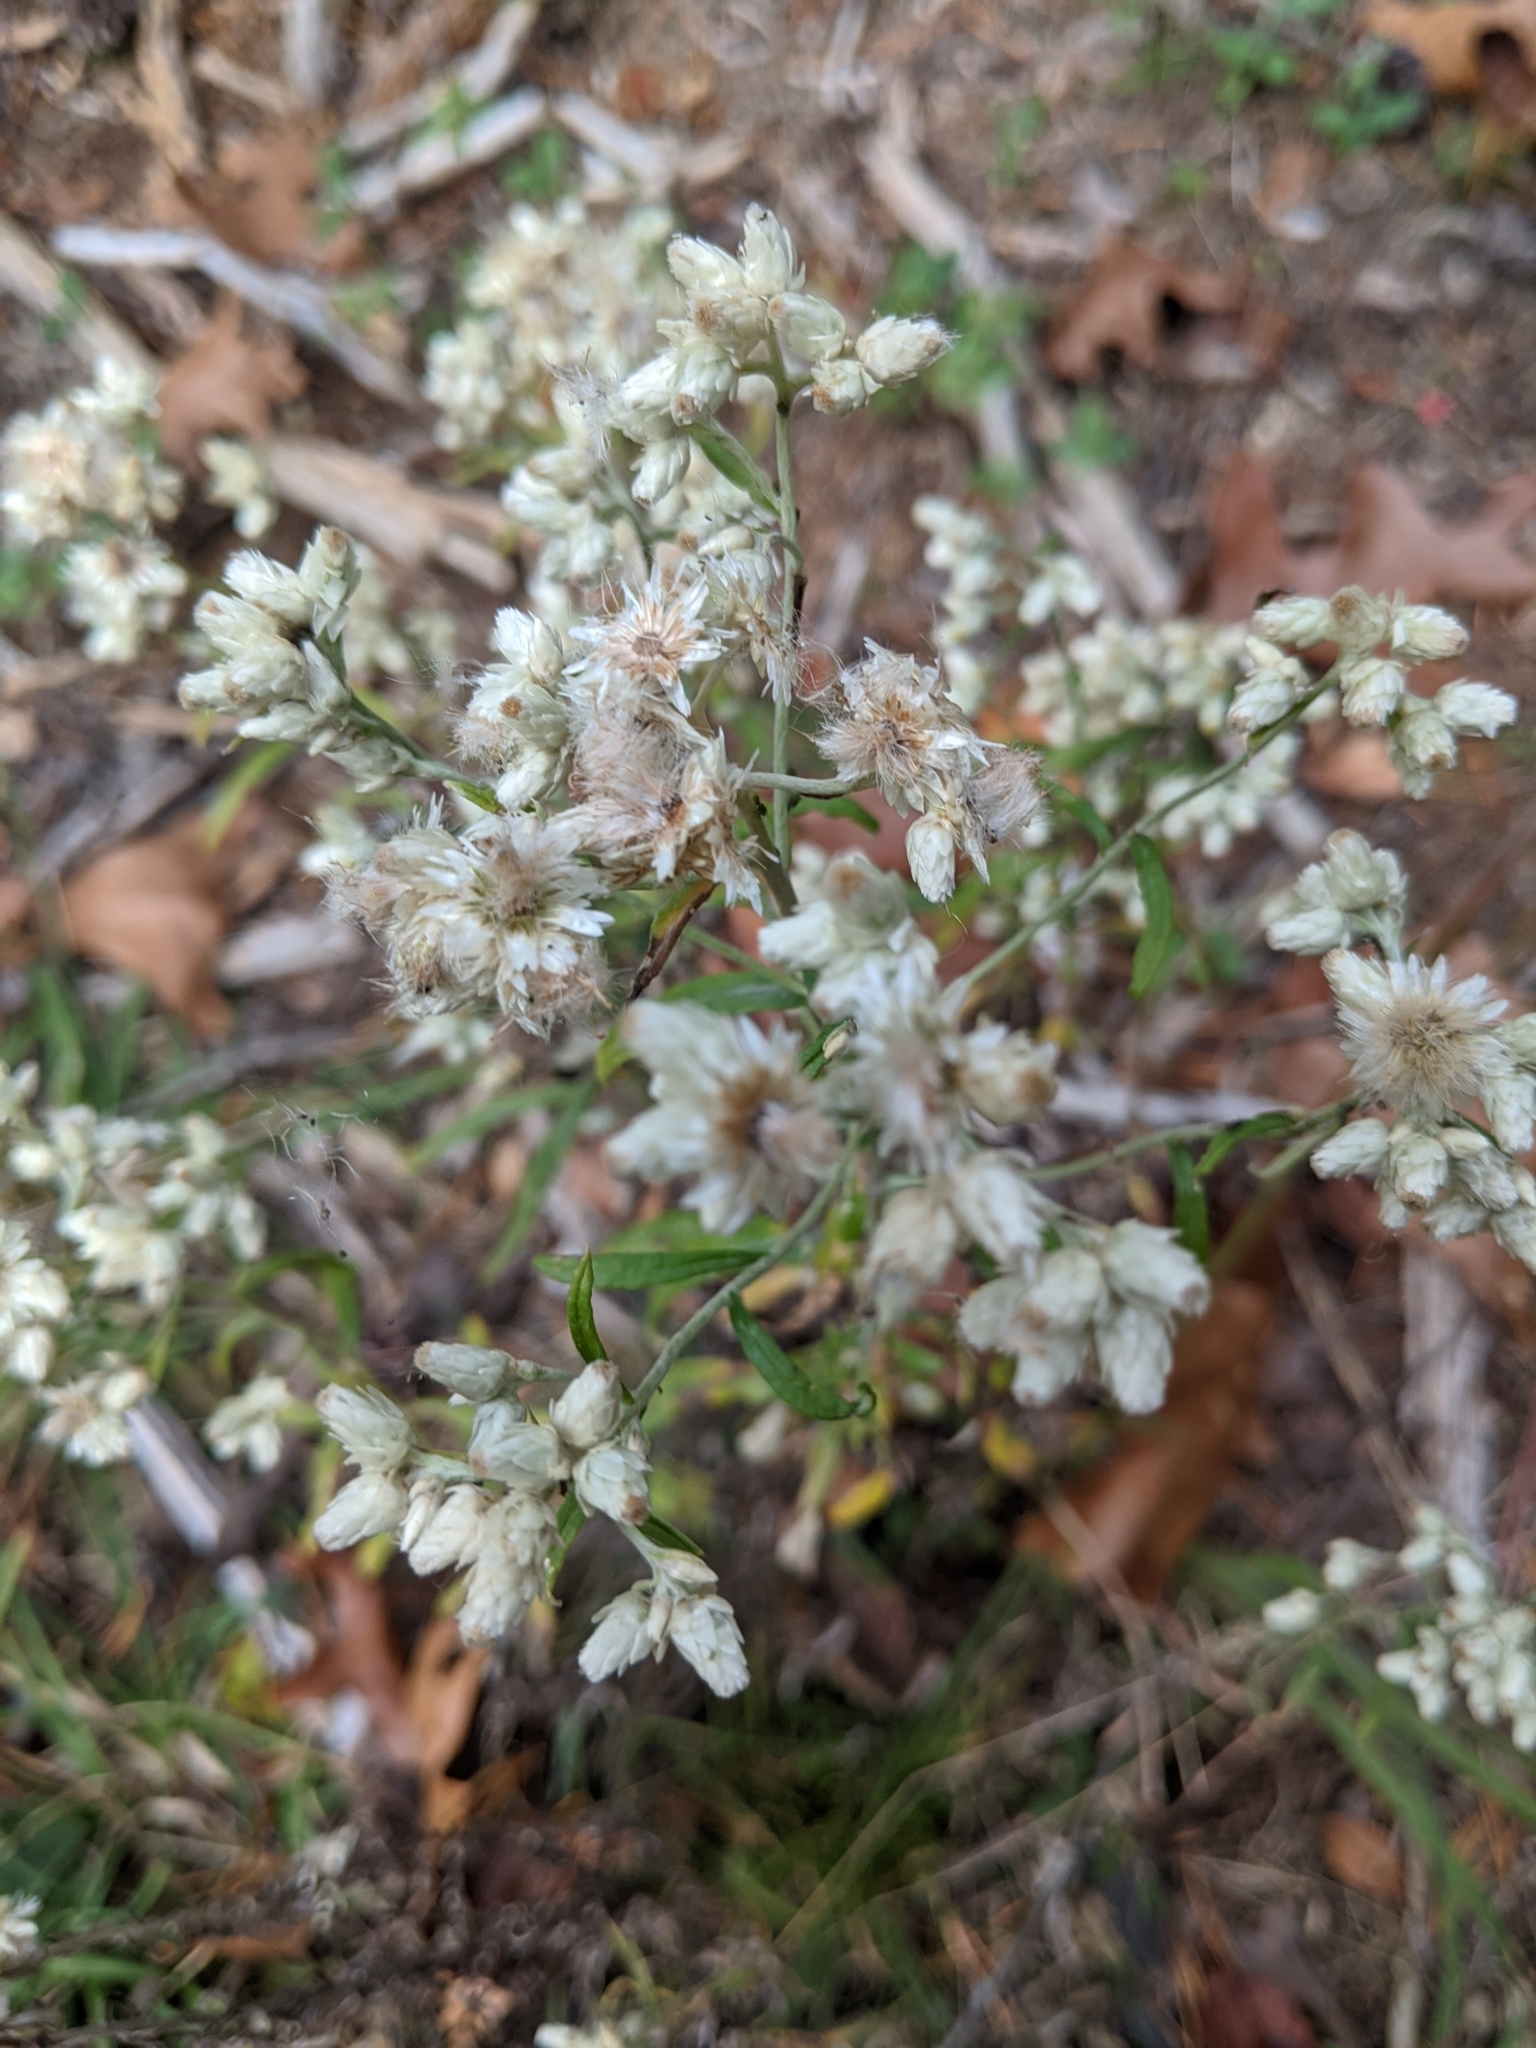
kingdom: Plantae
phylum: Tracheophyta
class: Magnoliopsida
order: Asterales
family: Asteraceae
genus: Pseudognaphalium
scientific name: Pseudognaphalium obtusifolium
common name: Eastern rabbit-tobacco
